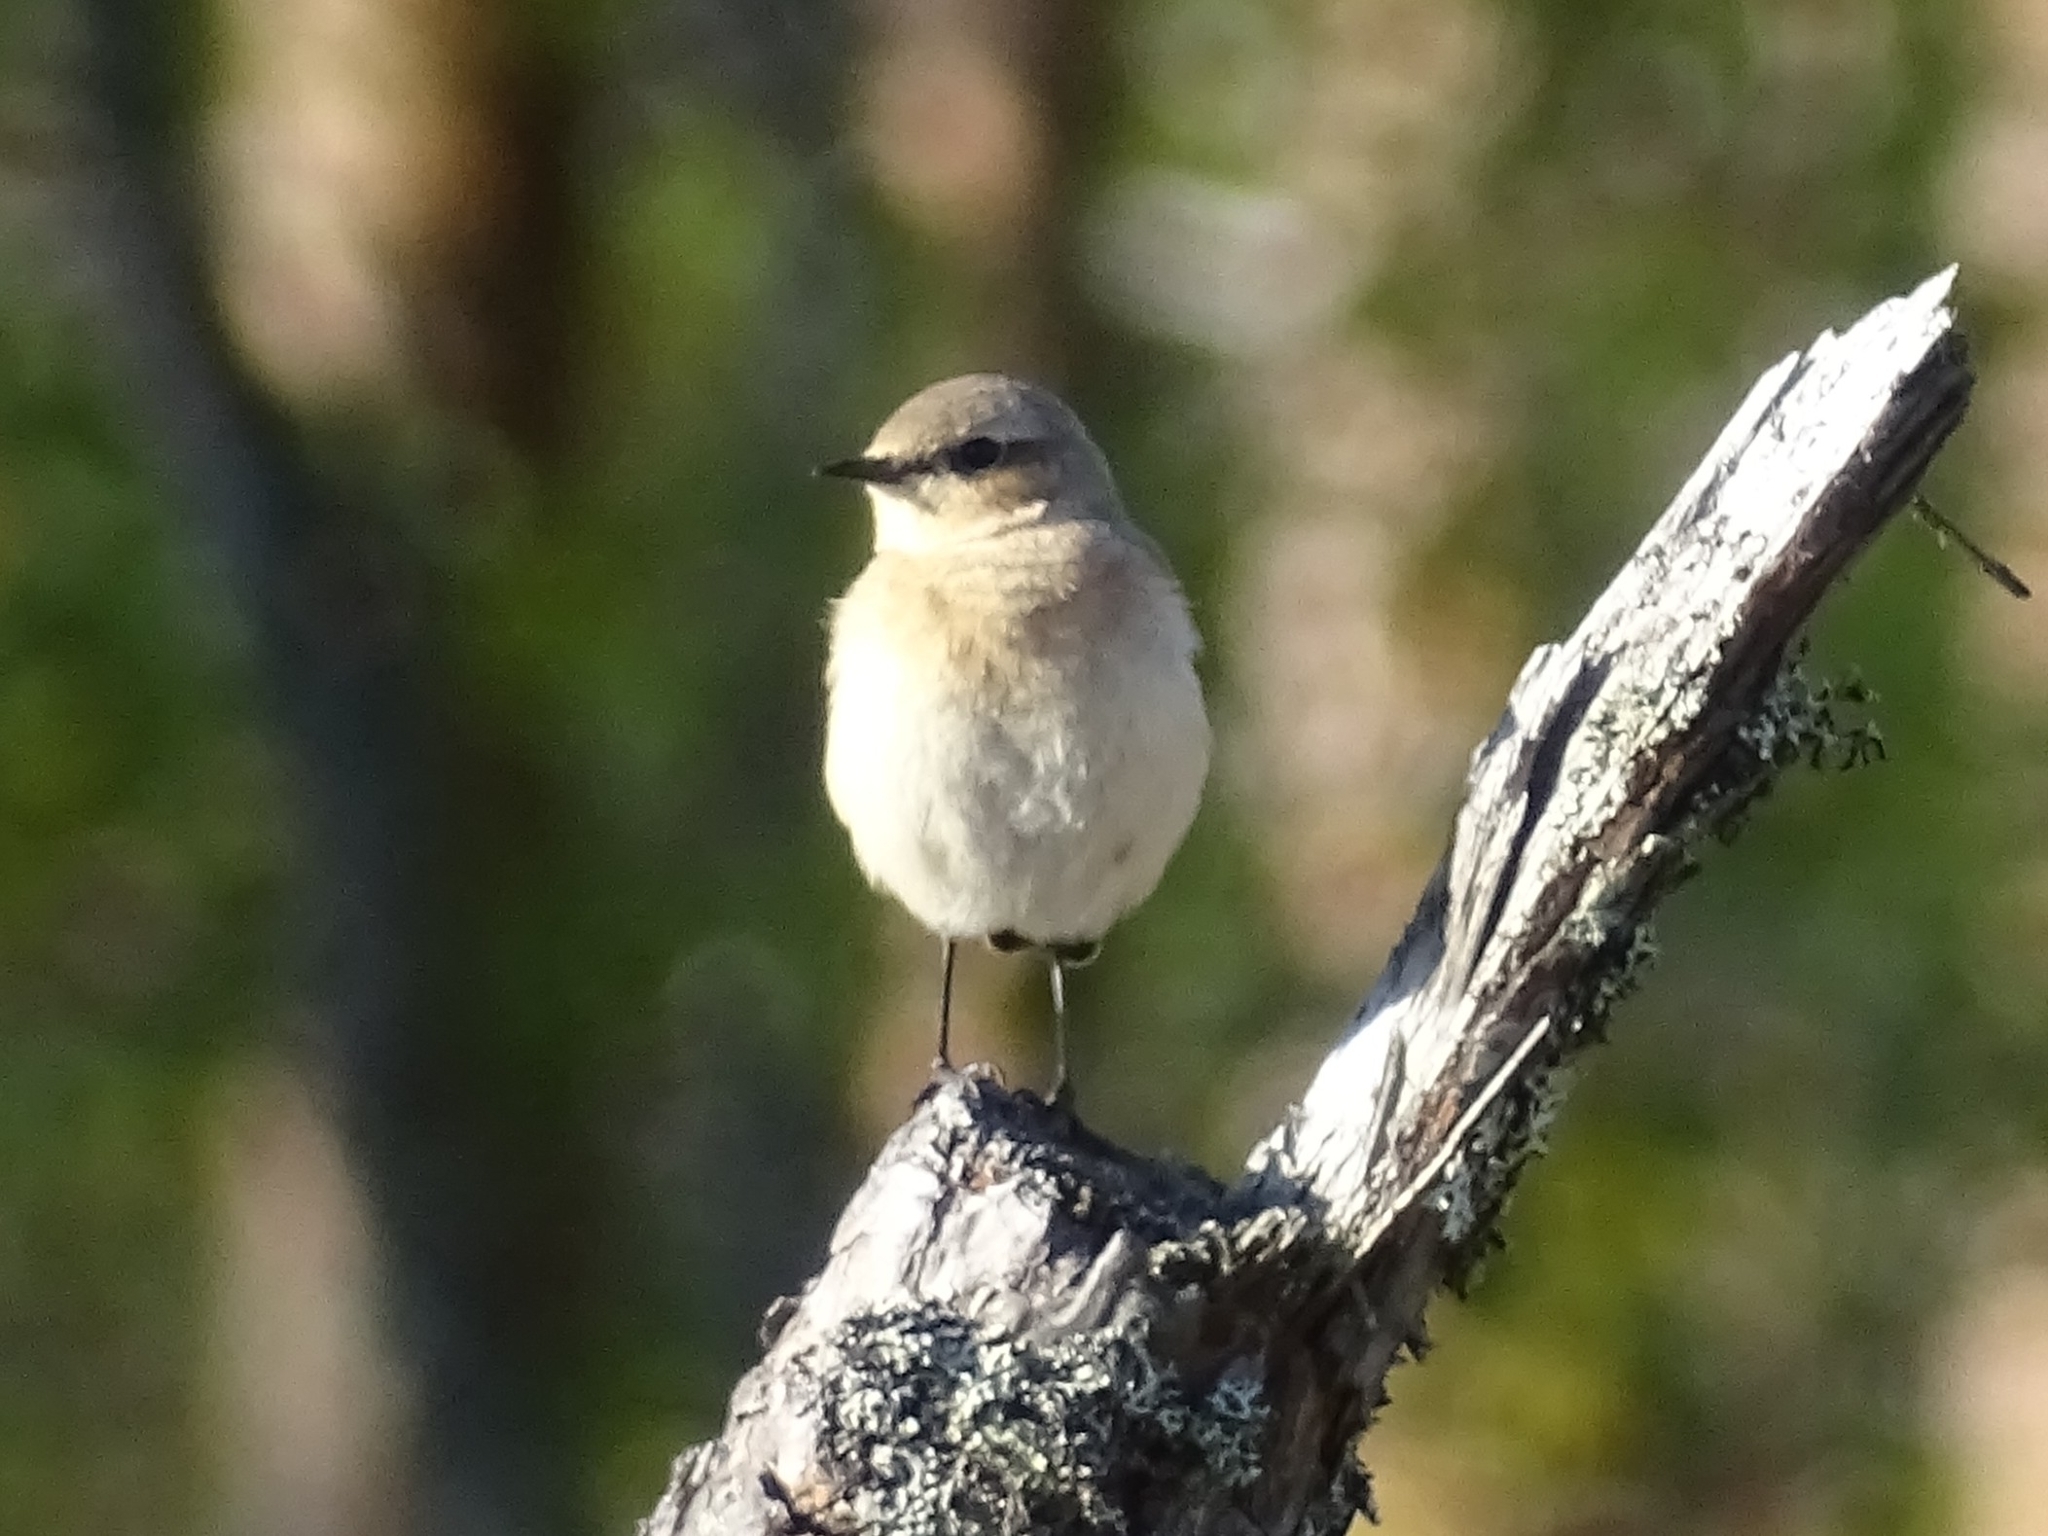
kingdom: Animalia
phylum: Chordata
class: Aves
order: Passeriformes
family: Muscicapidae
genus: Oenanthe
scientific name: Oenanthe oenanthe
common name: Northern wheatear
